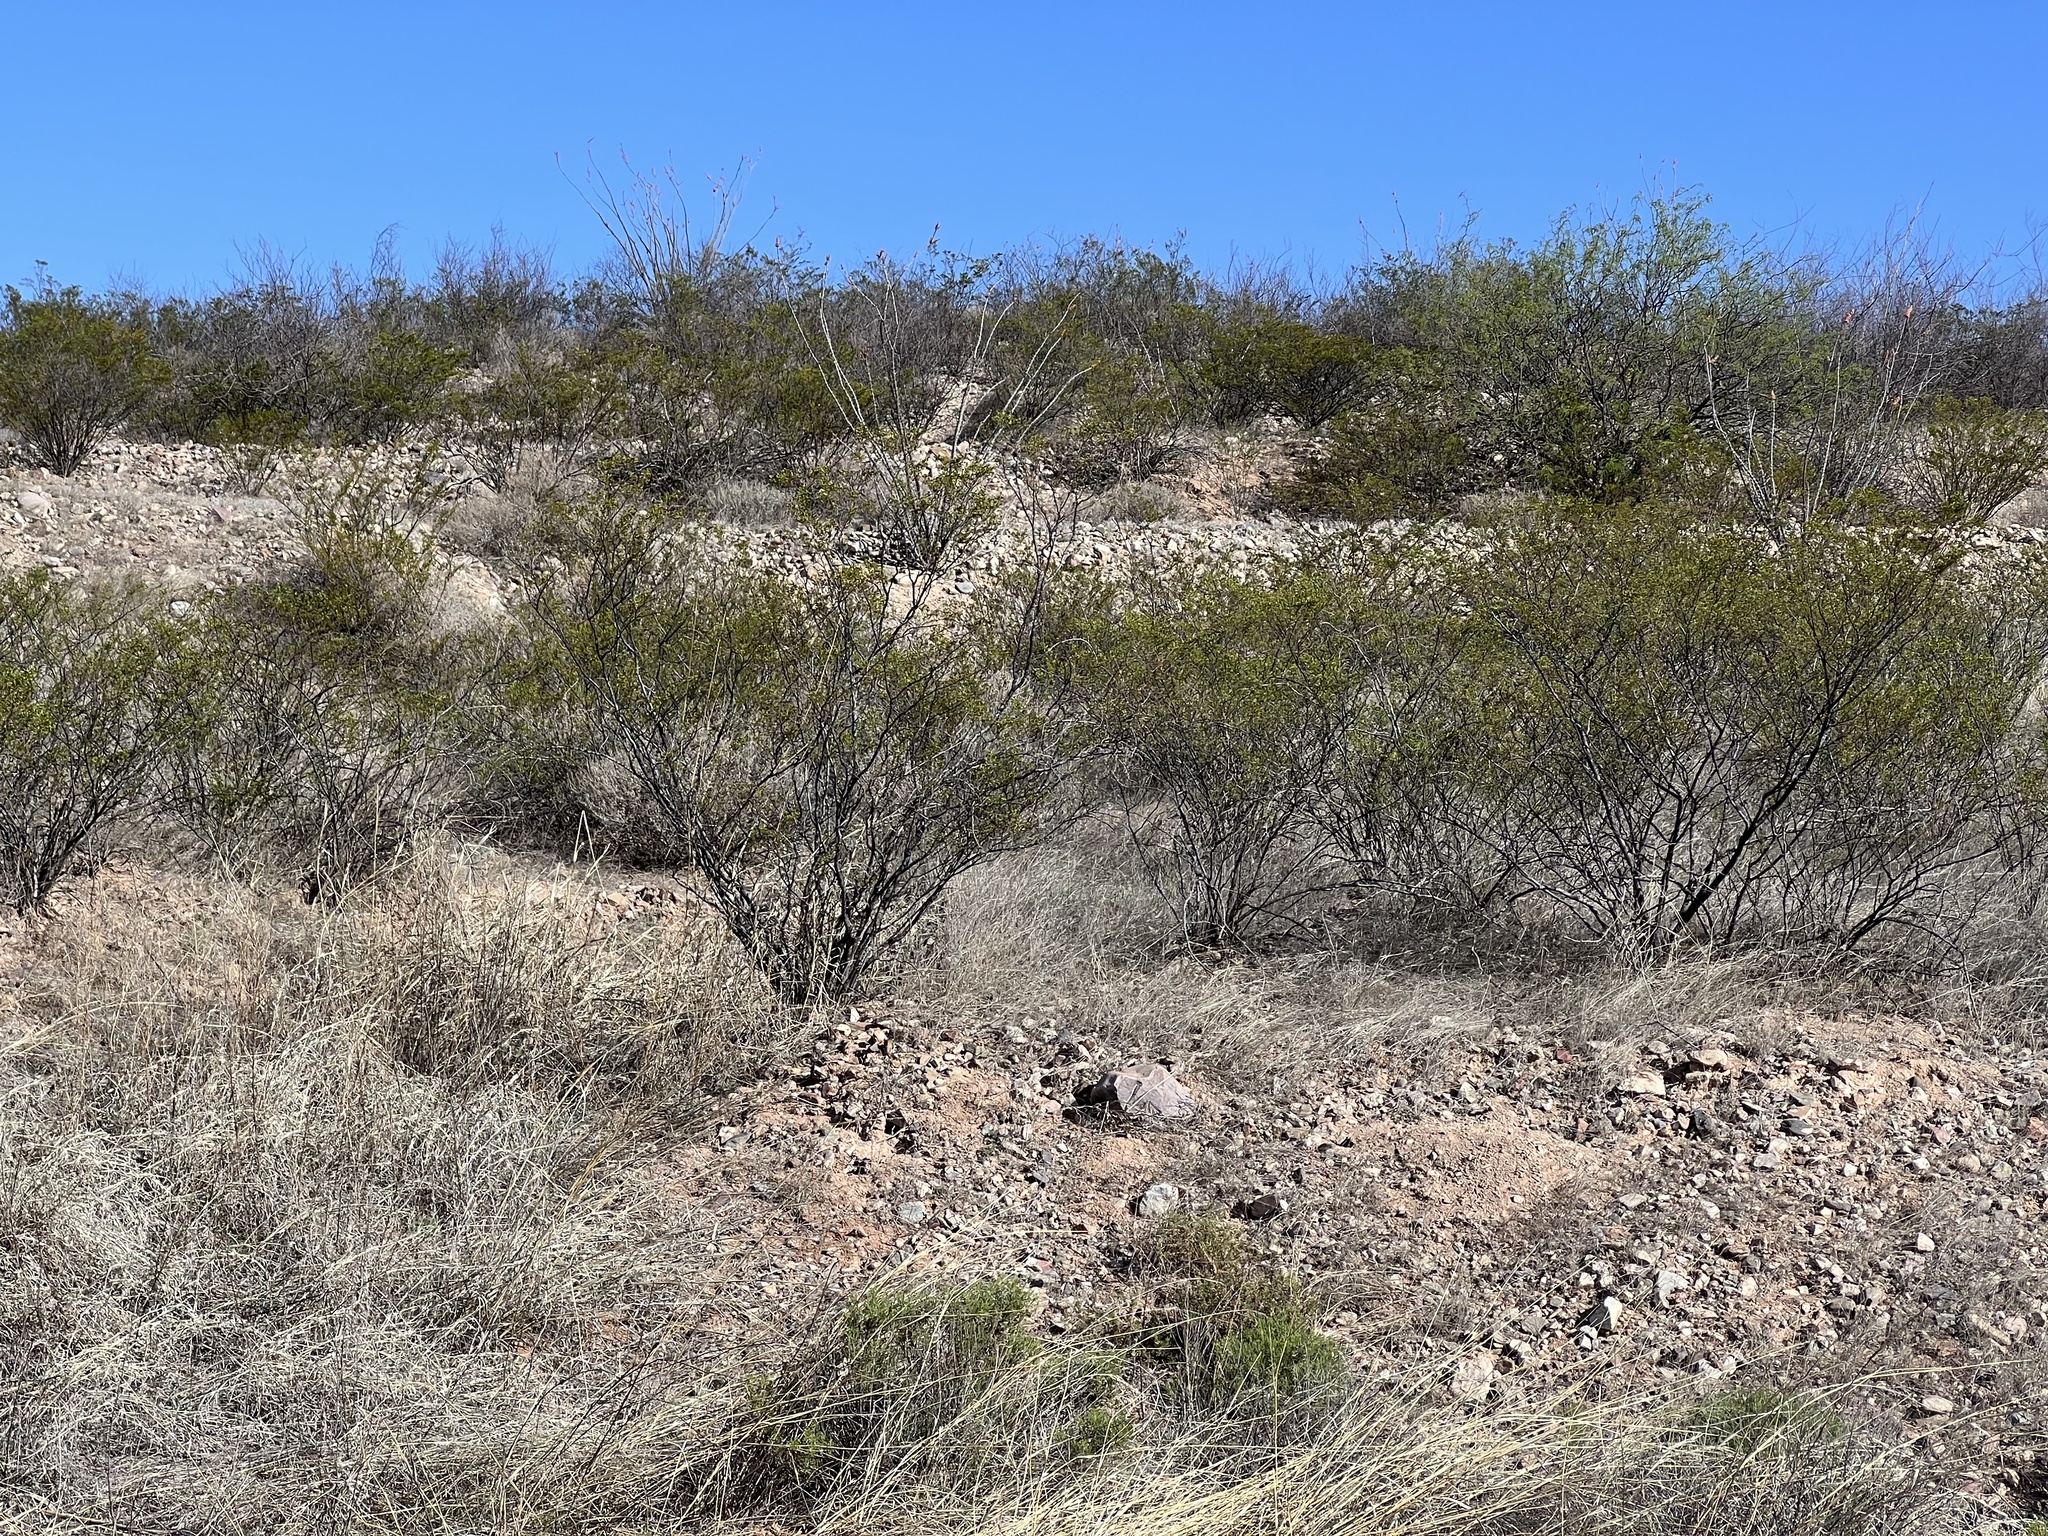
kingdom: Plantae
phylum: Tracheophyta
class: Magnoliopsida
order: Zygophyllales
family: Zygophyllaceae
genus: Larrea
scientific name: Larrea tridentata
